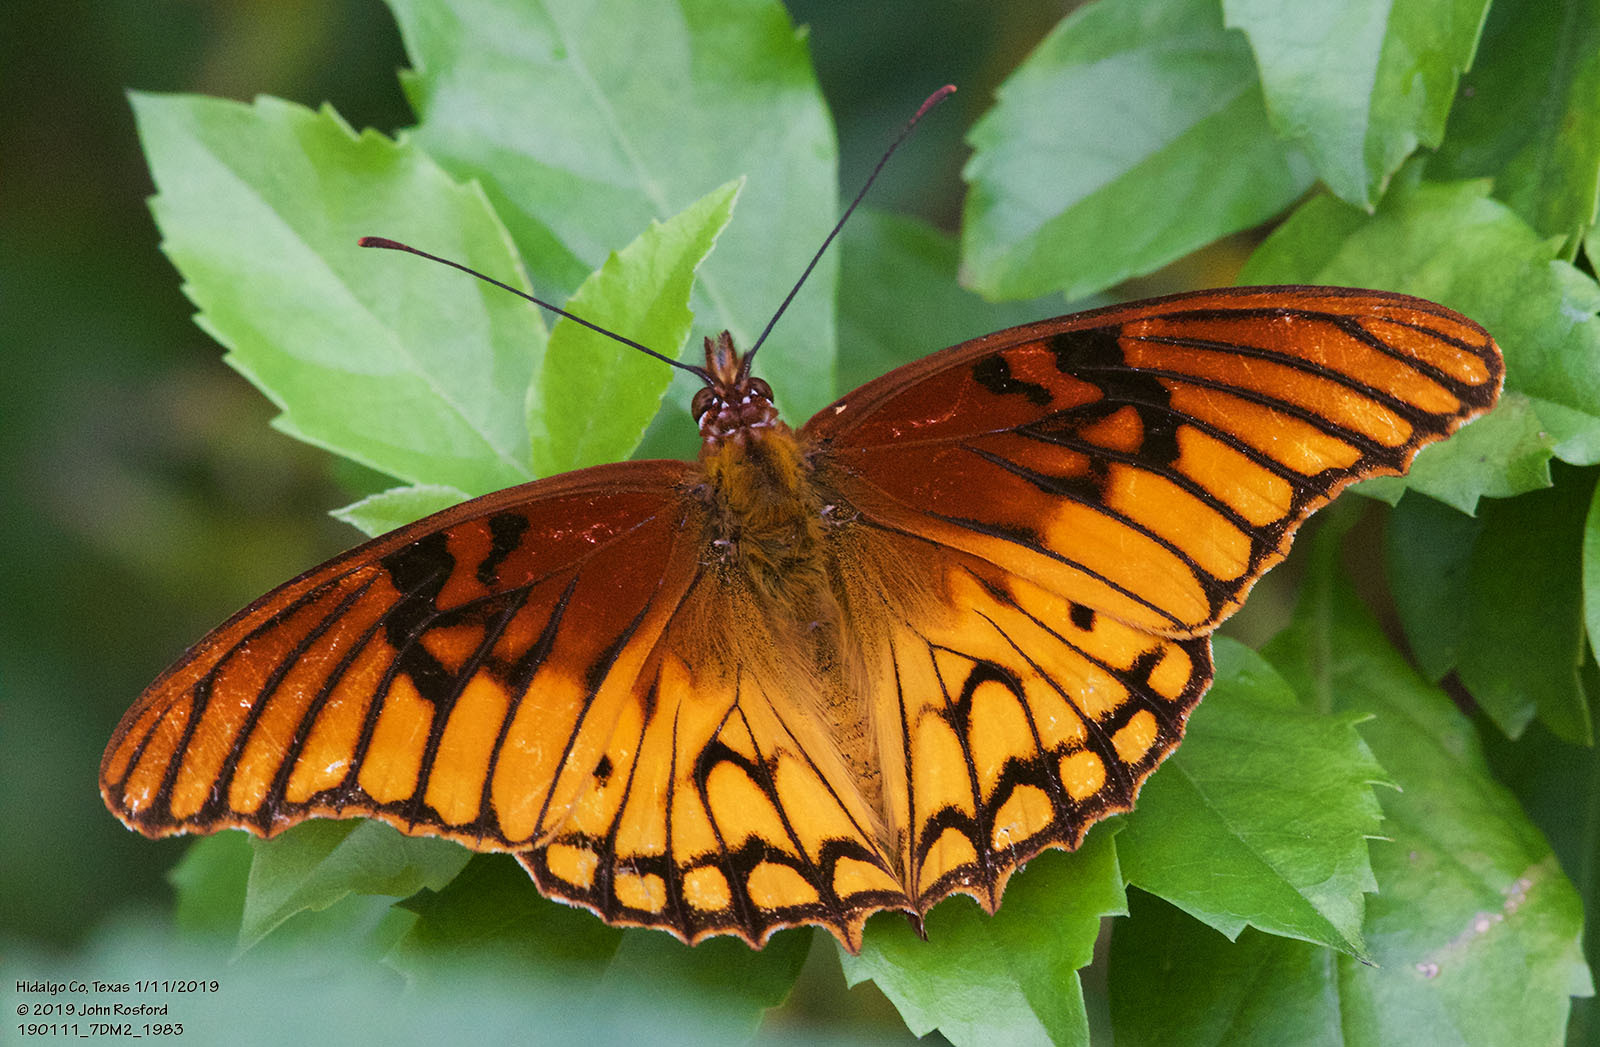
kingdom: Animalia
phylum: Arthropoda
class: Insecta
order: Lepidoptera
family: Nymphalidae
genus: Dione
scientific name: Dione moneta
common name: Mexican silverspot
